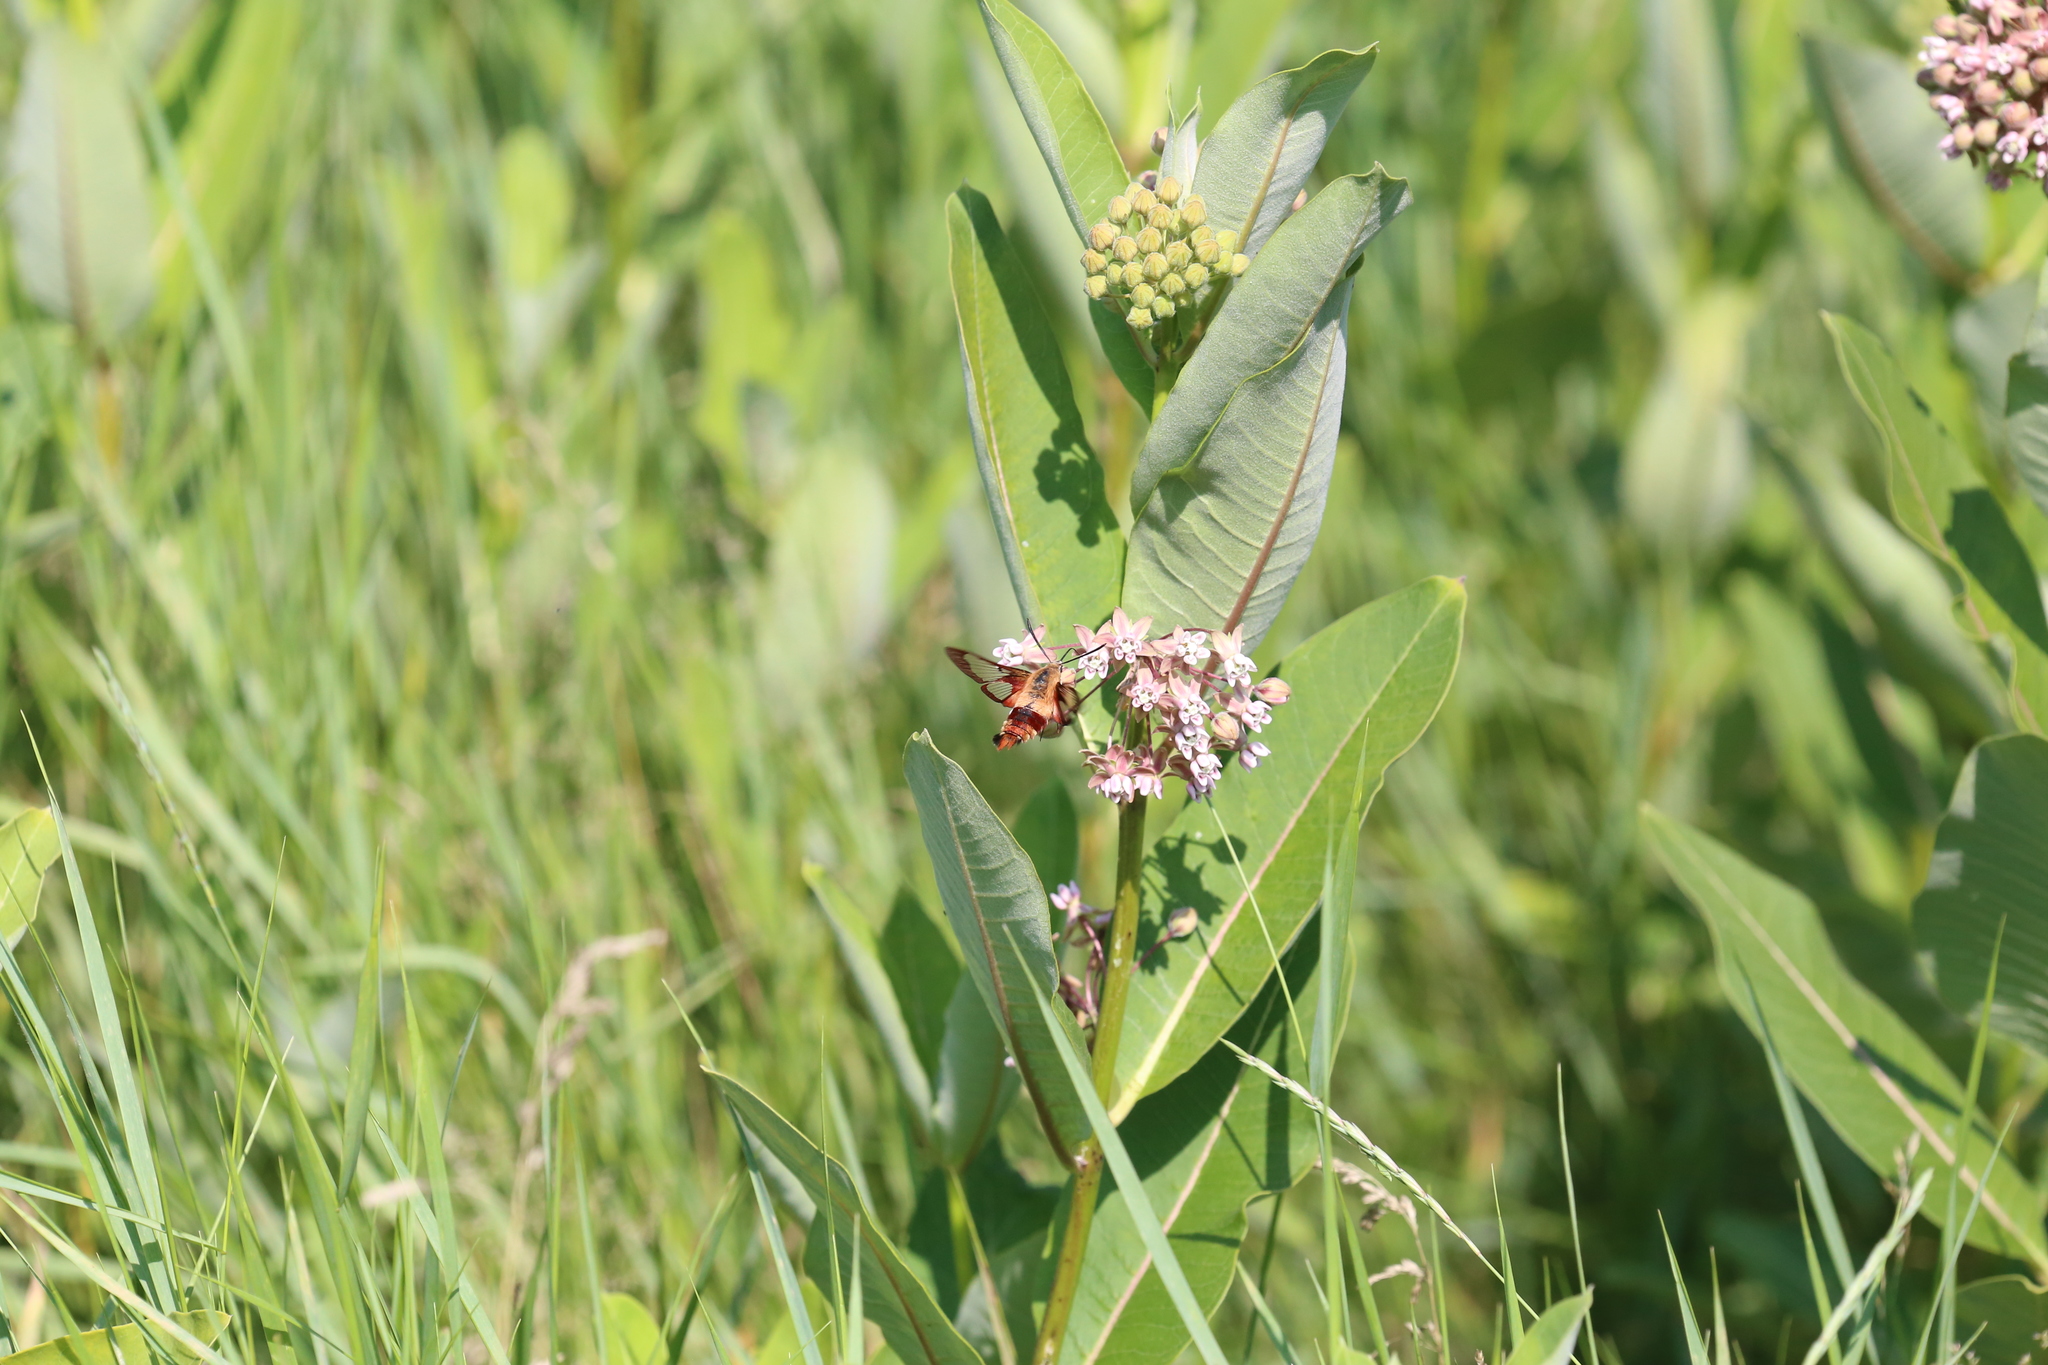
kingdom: Animalia
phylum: Arthropoda
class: Insecta
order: Lepidoptera
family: Sphingidae
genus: Hemaris
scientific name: Hemaris thysbe
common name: Common clear-wing
